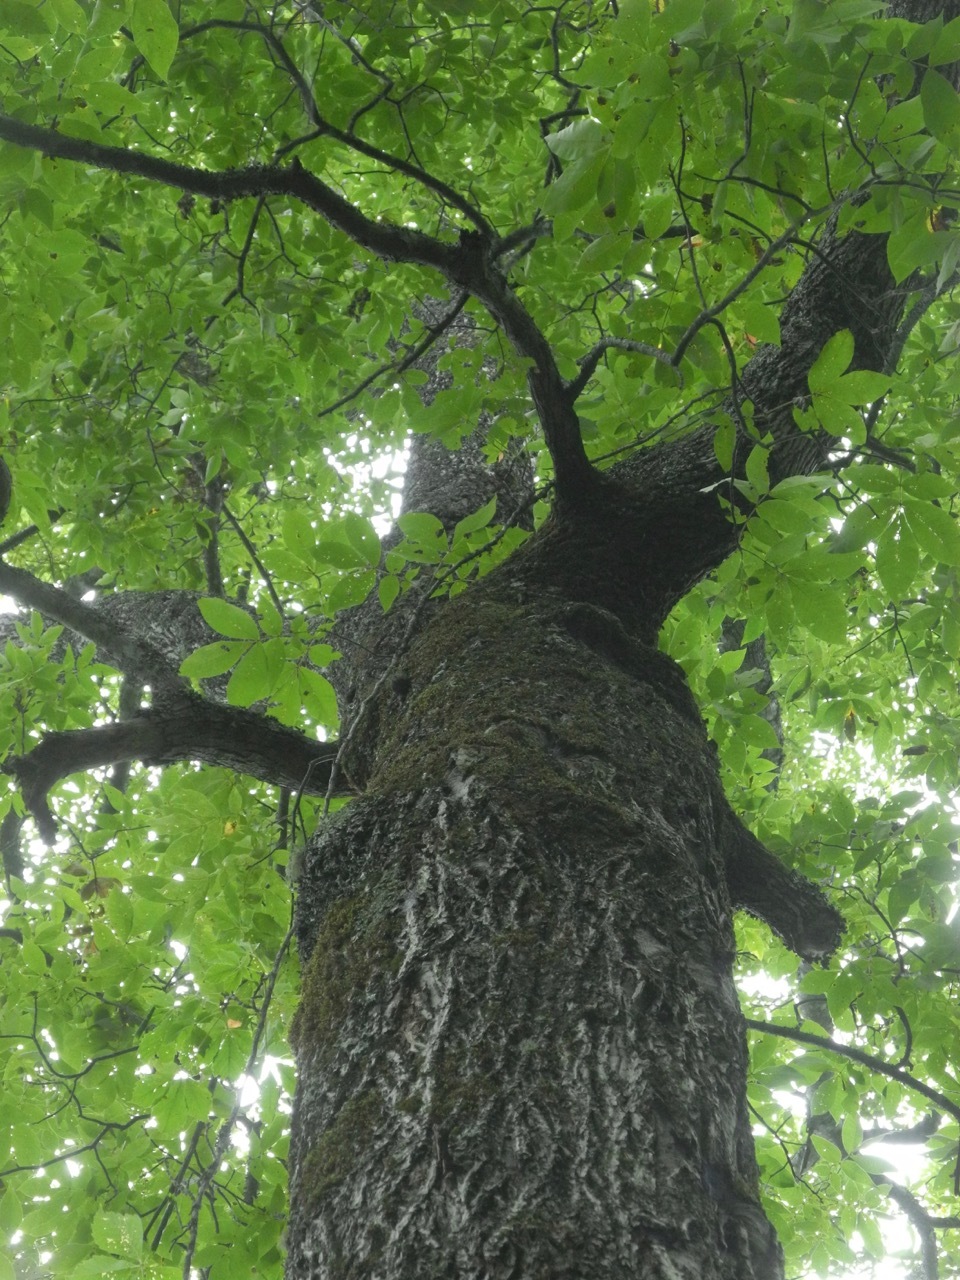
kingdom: Plantae
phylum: Tracheophyta
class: Magnoliopsida
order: Fagales
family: Juglandaceae
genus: Carya
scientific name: Carya alba
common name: Mockernut hickory
